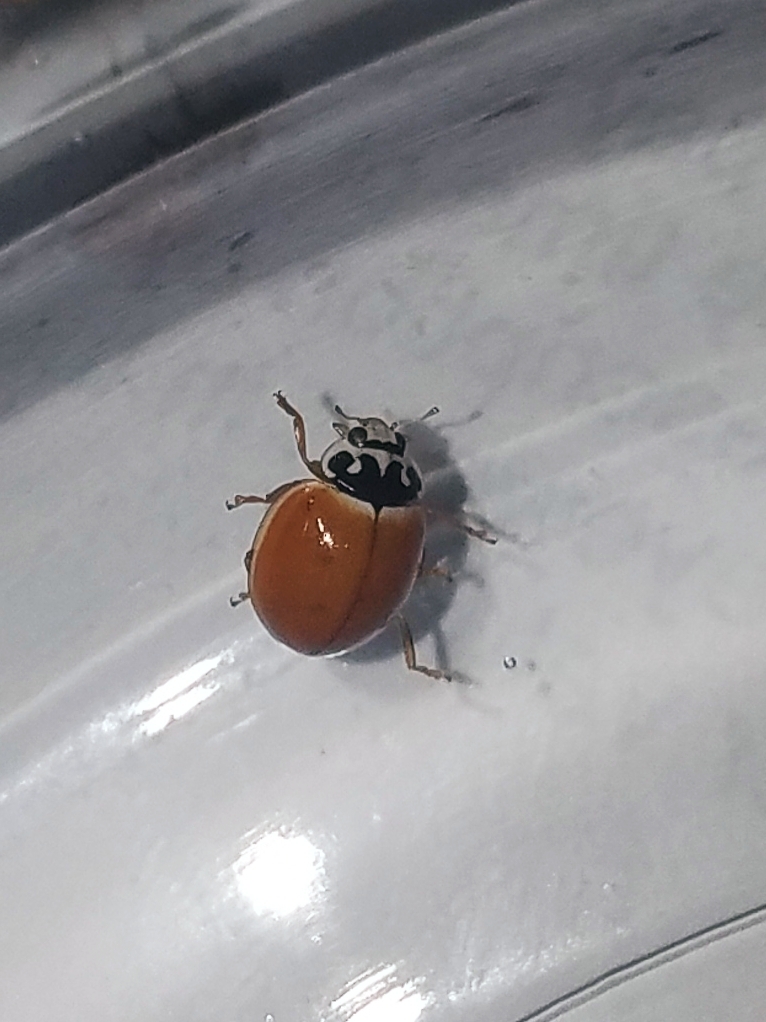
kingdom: Animalia
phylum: Arthropoda
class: Insecta
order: Coleoptera
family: Coccinellidae
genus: Cycloneda
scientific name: Cycloneda munda
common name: Polished lady beetle
